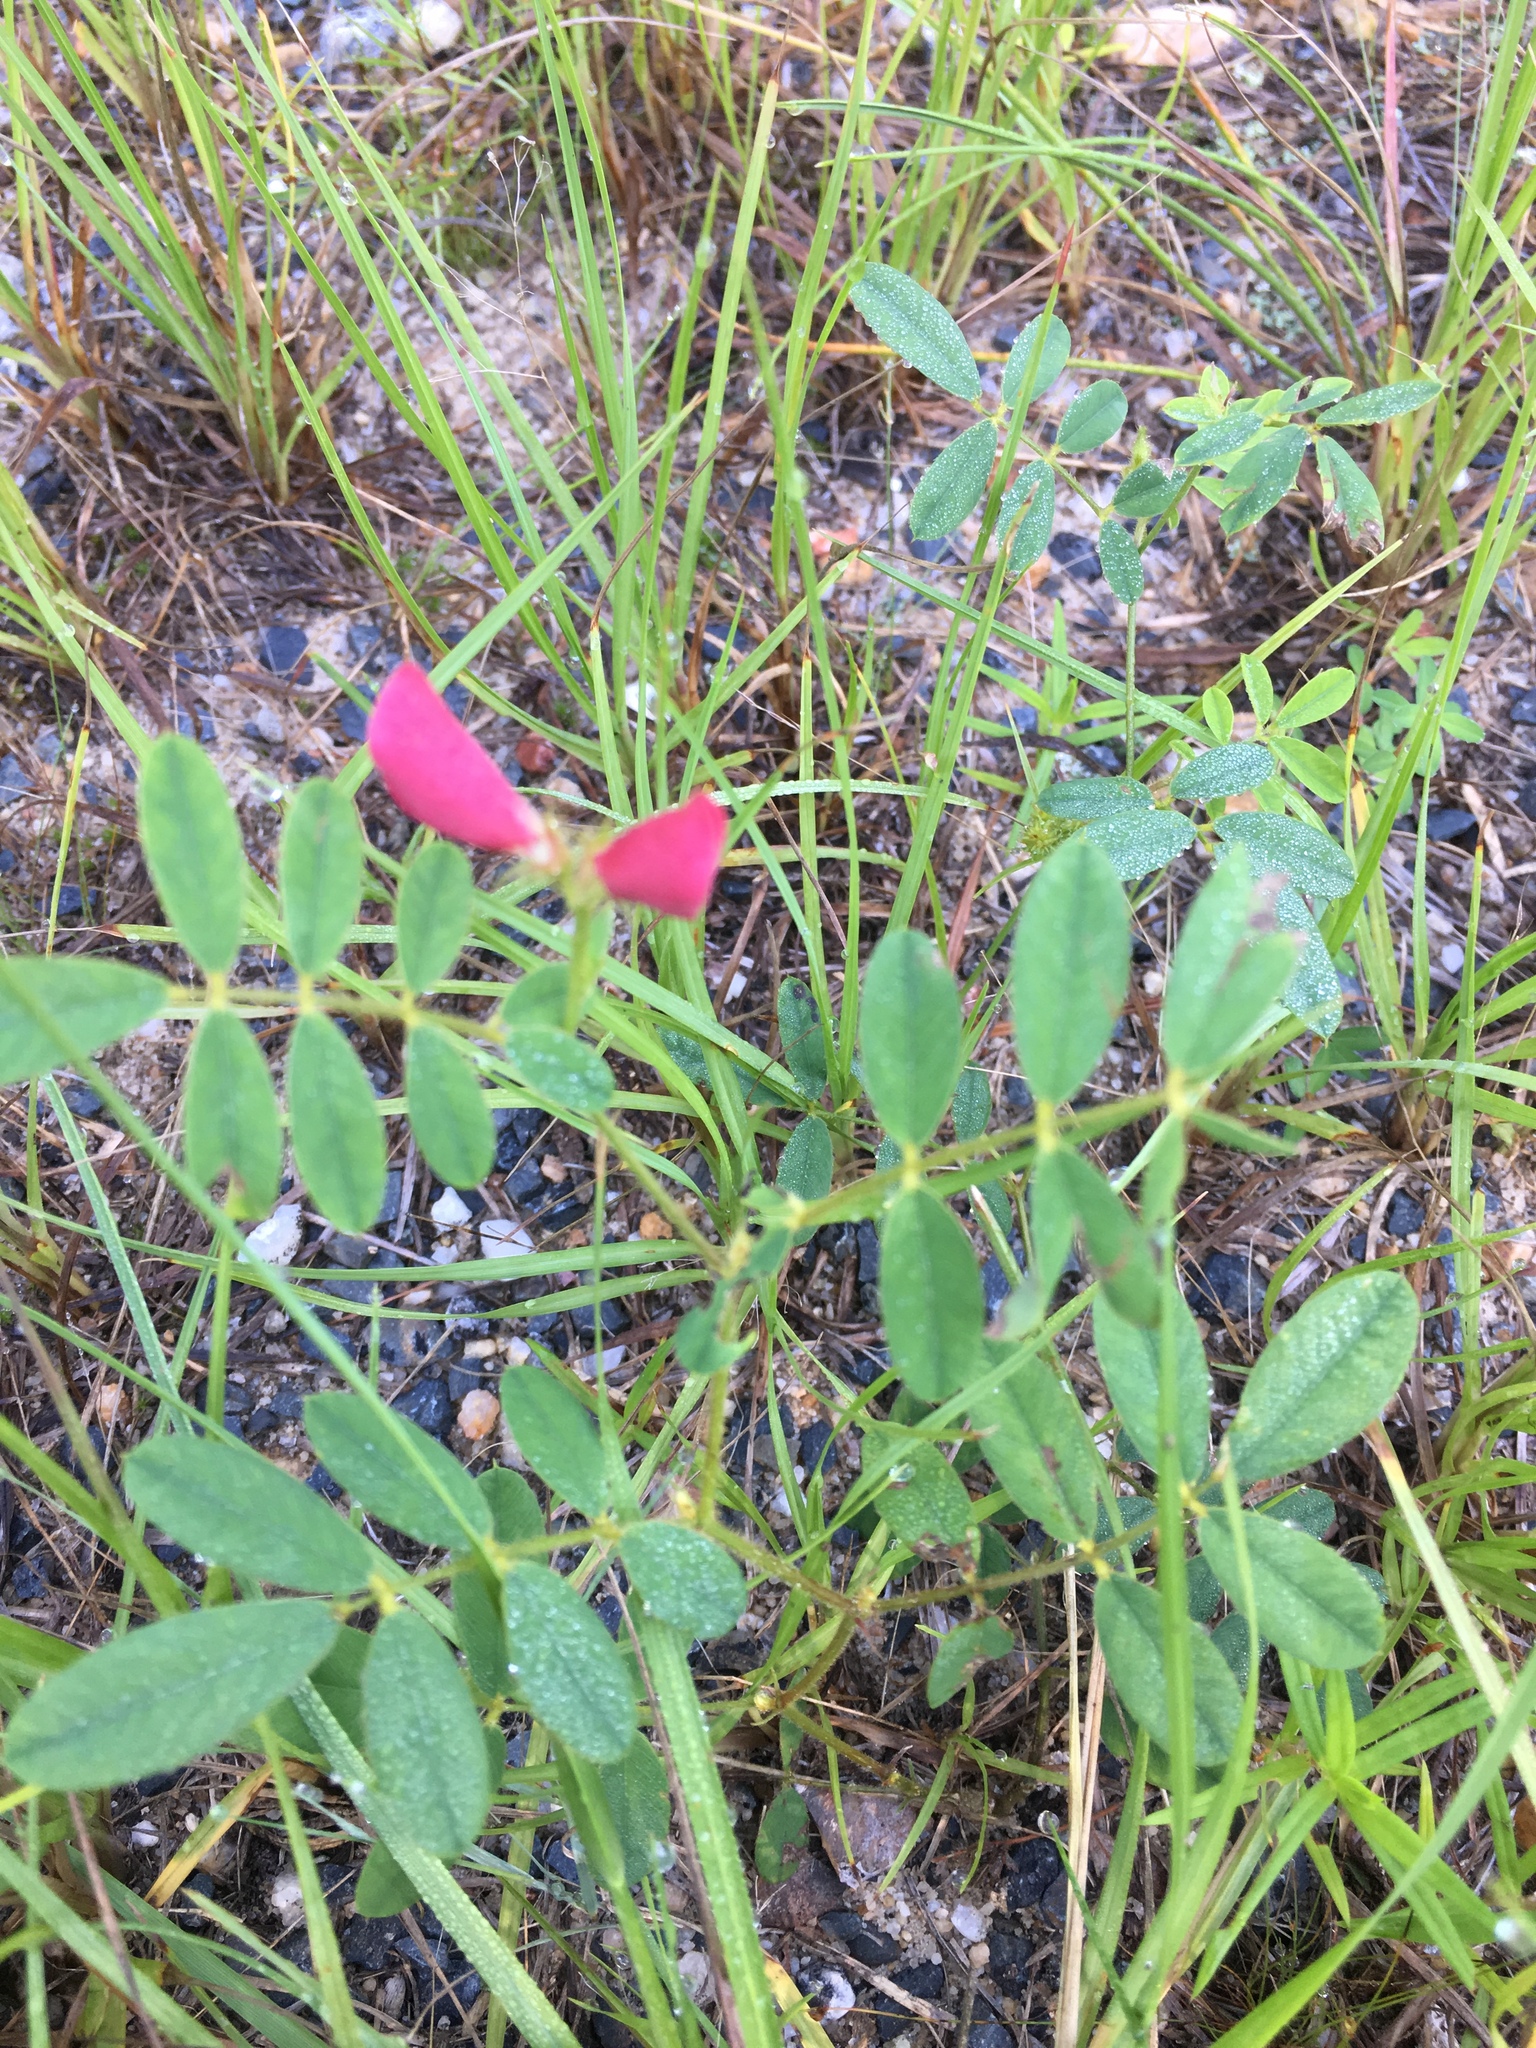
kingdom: Plantae
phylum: Tracheophyta
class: Magnoliopsida
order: Fabales
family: Fabaceae
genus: Tephrosia
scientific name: Tephrosia spicata
